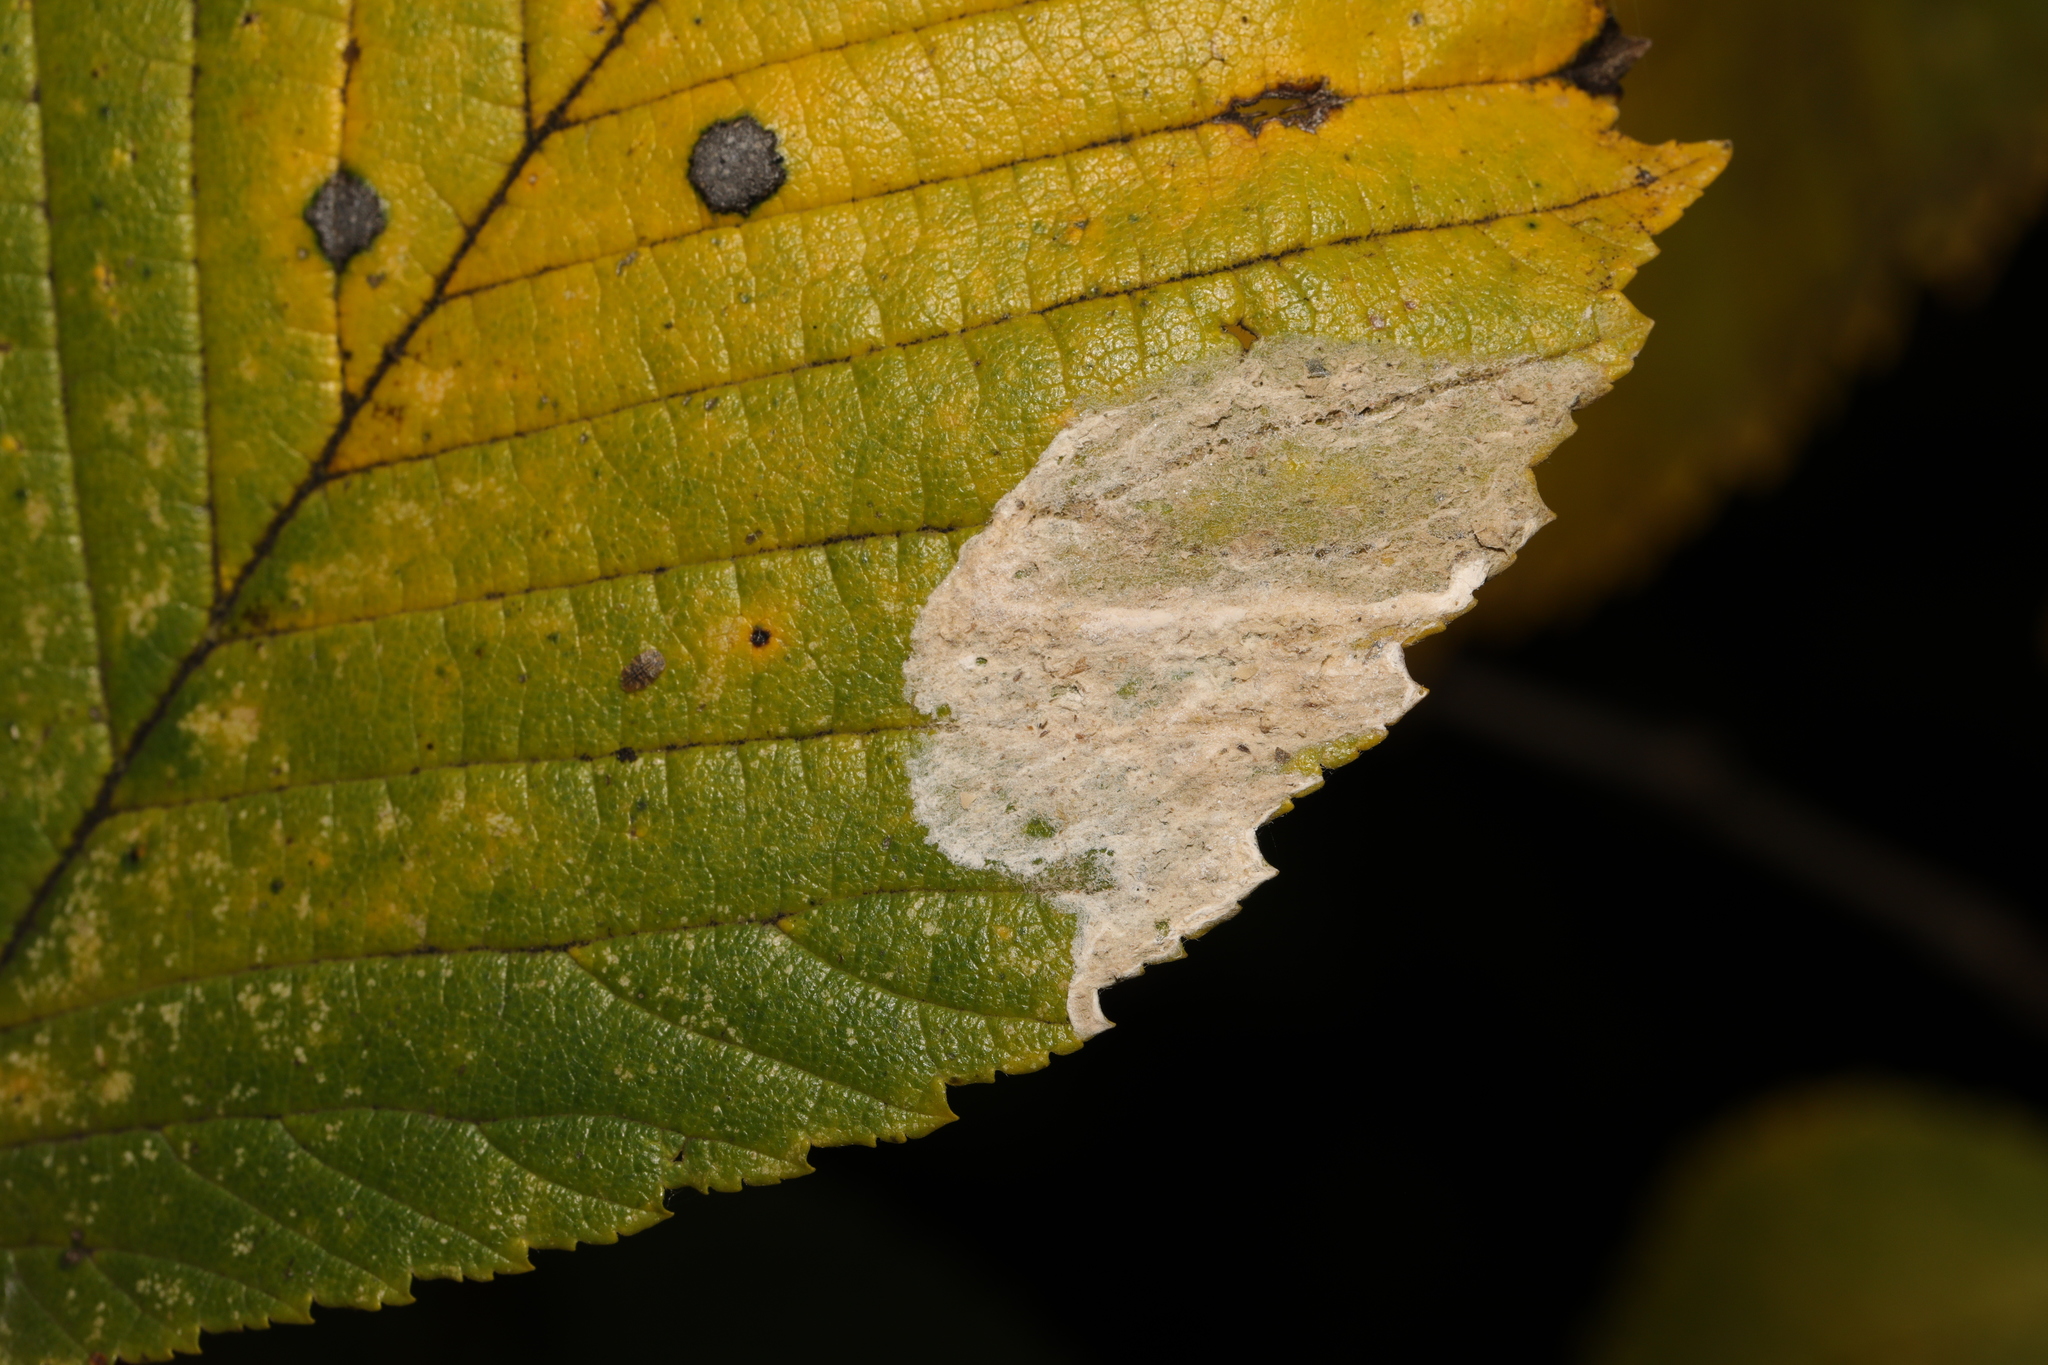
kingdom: Animalia
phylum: Arthropoda
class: Insecta
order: Hymenoptera
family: Tenthredinidae
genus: Fenusa
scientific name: Fenusa ulmi
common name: Elm leafminer
